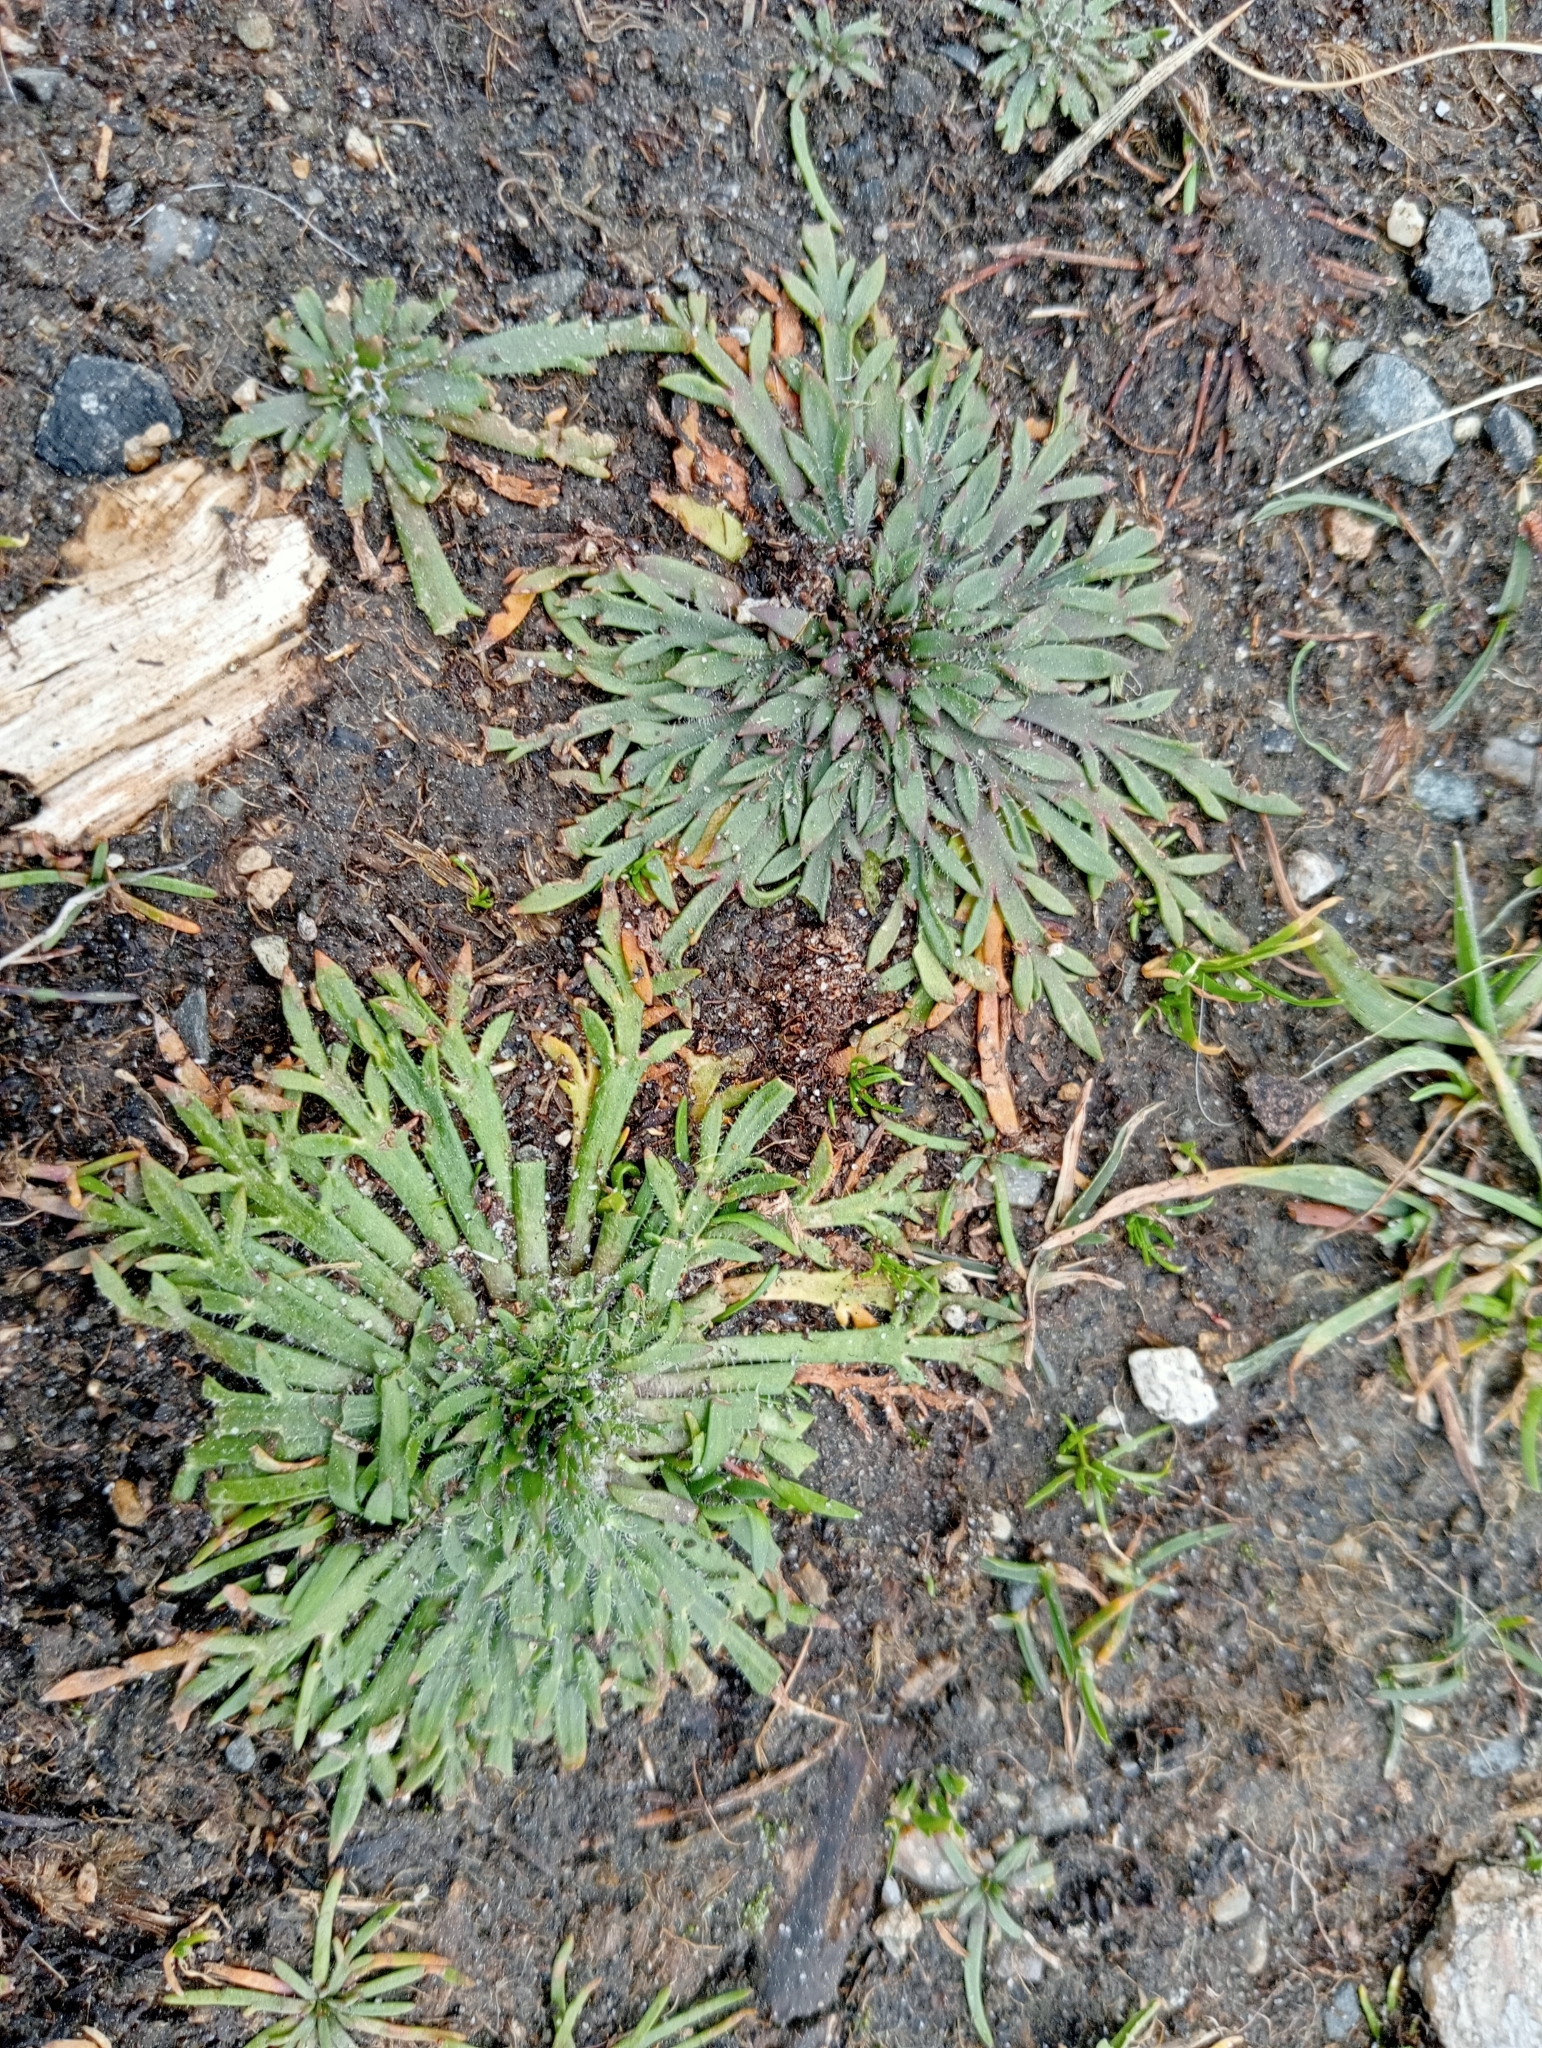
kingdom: Plantae
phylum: Tracheophyta
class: Magnoliopsida
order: Lamiales
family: Plantaginaceae
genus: Plantago
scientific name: Plantago coronopus
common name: Buck's-horn plantain
